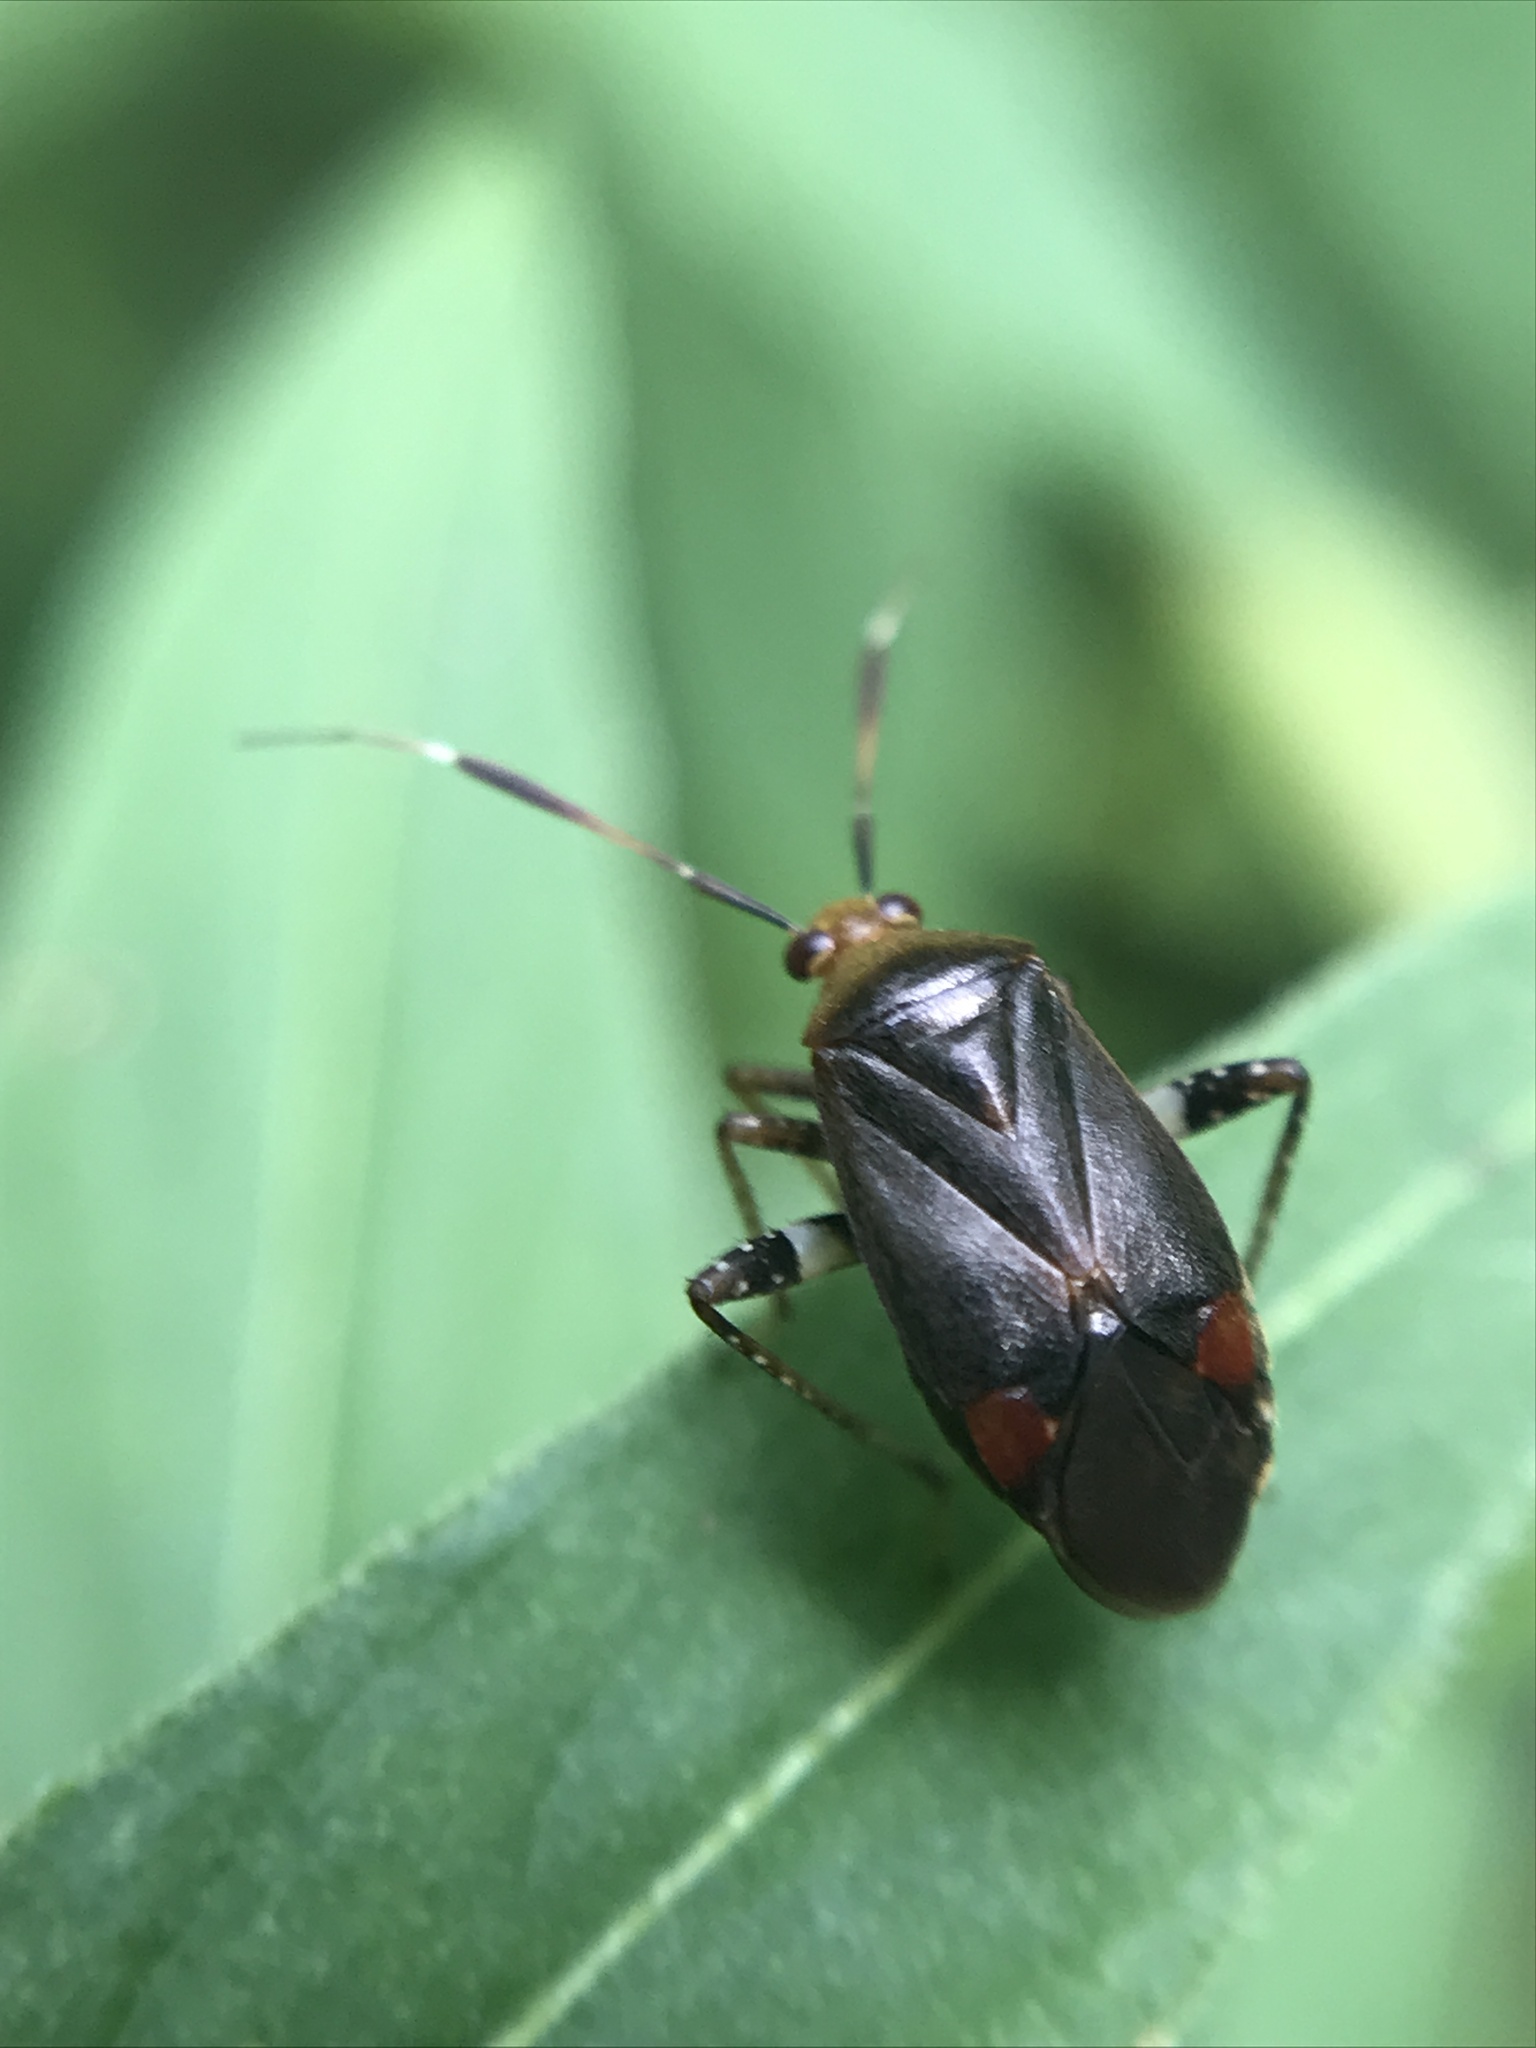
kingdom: Animalia
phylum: Arthropoda
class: Insecta
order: Hemiptera
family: Miridae
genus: Horciasinus
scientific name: Horciasinus argentinus
